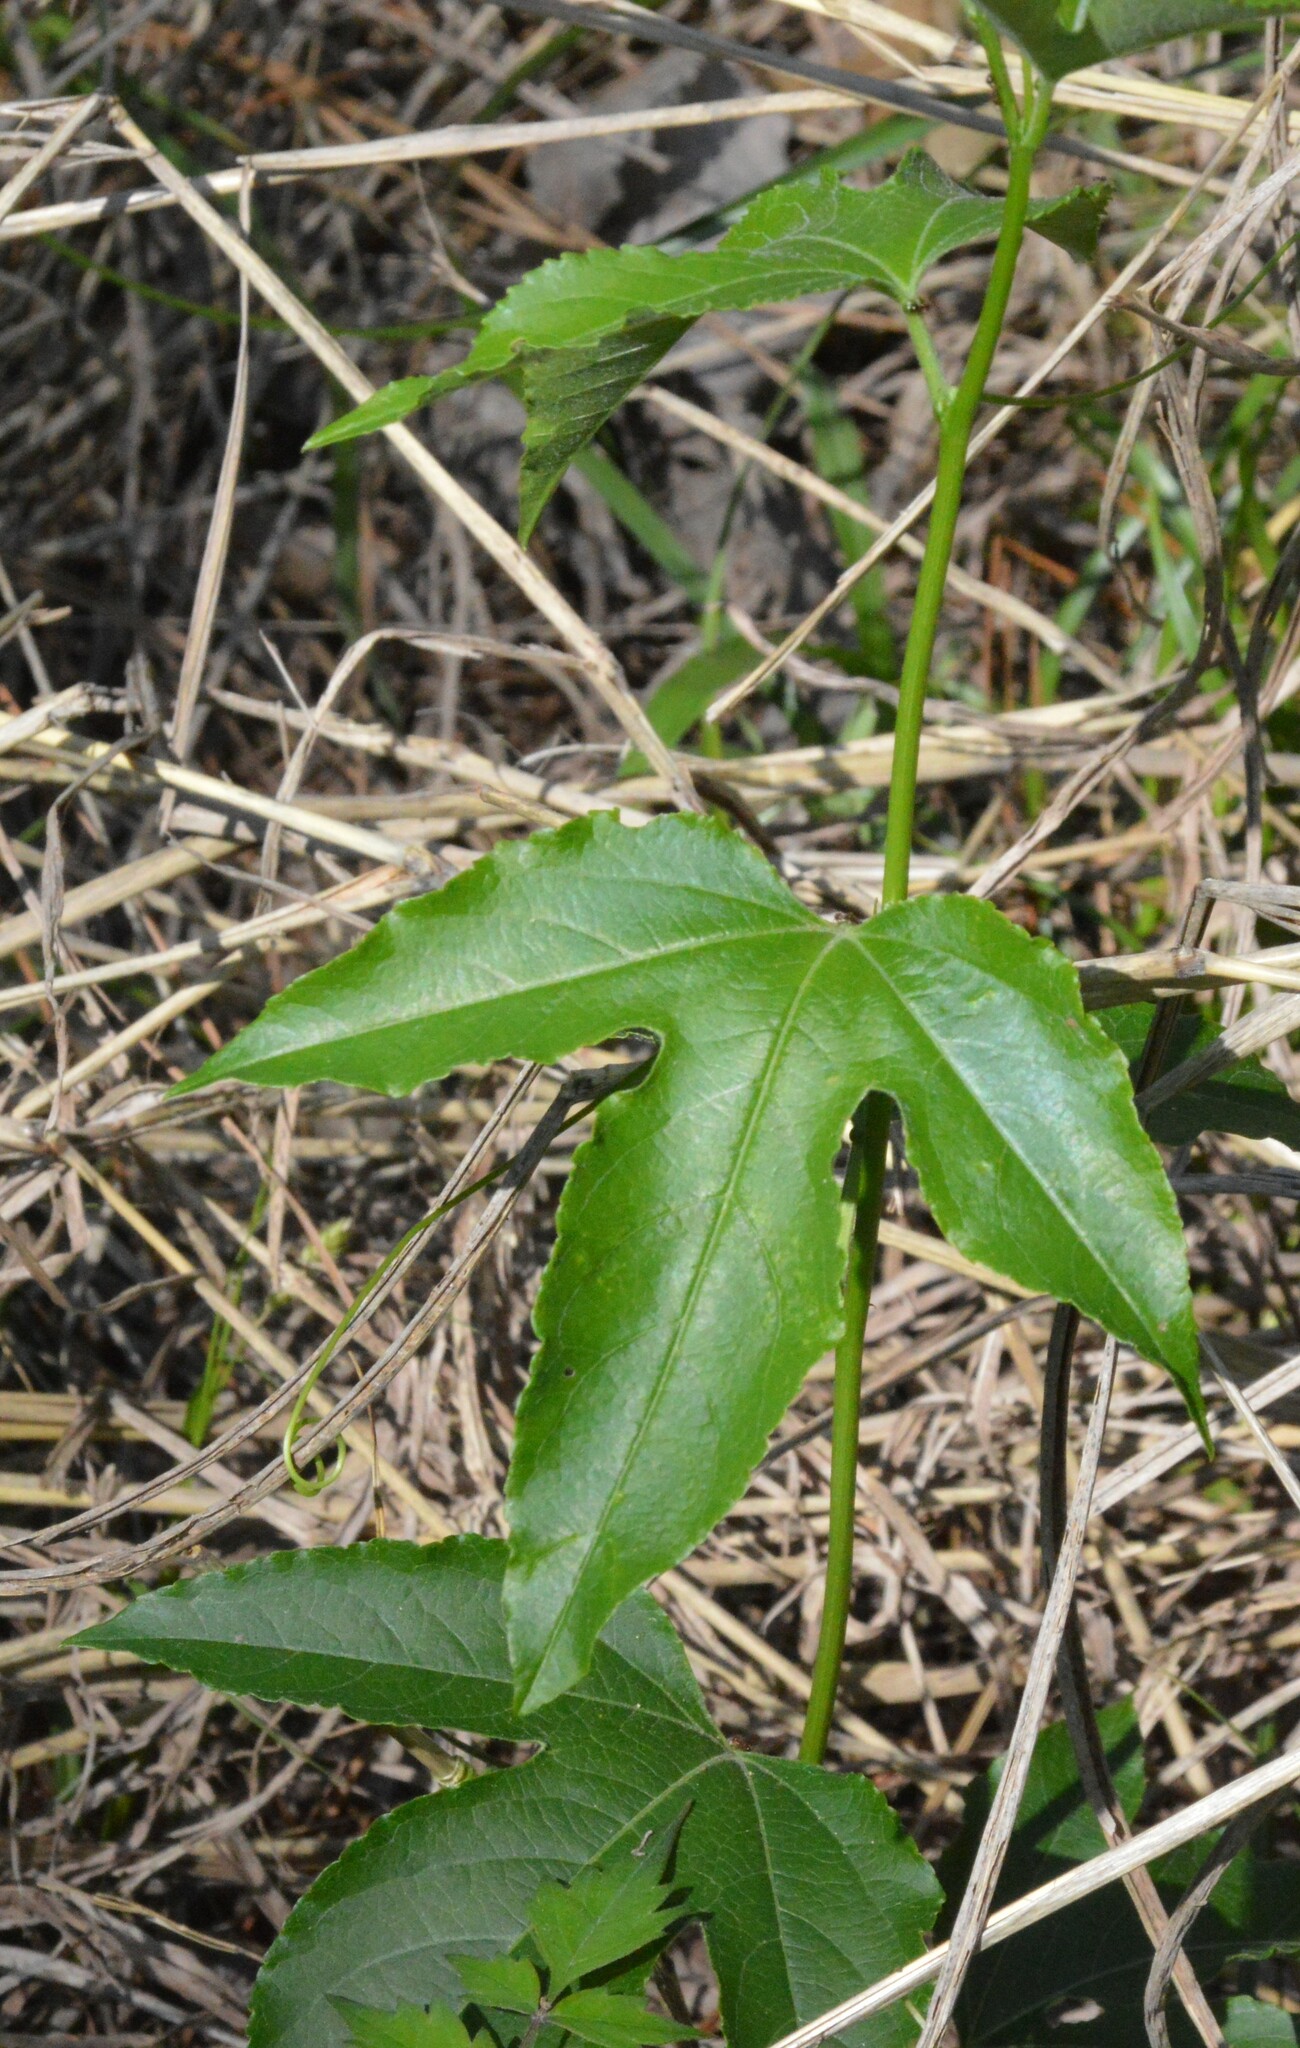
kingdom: Plantae
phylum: Tracheophyta
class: Magnoliopsida
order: Malpighiales
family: Passifloraceae
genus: Passiflora
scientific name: Passiflora incarnata
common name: Apricot-vine
